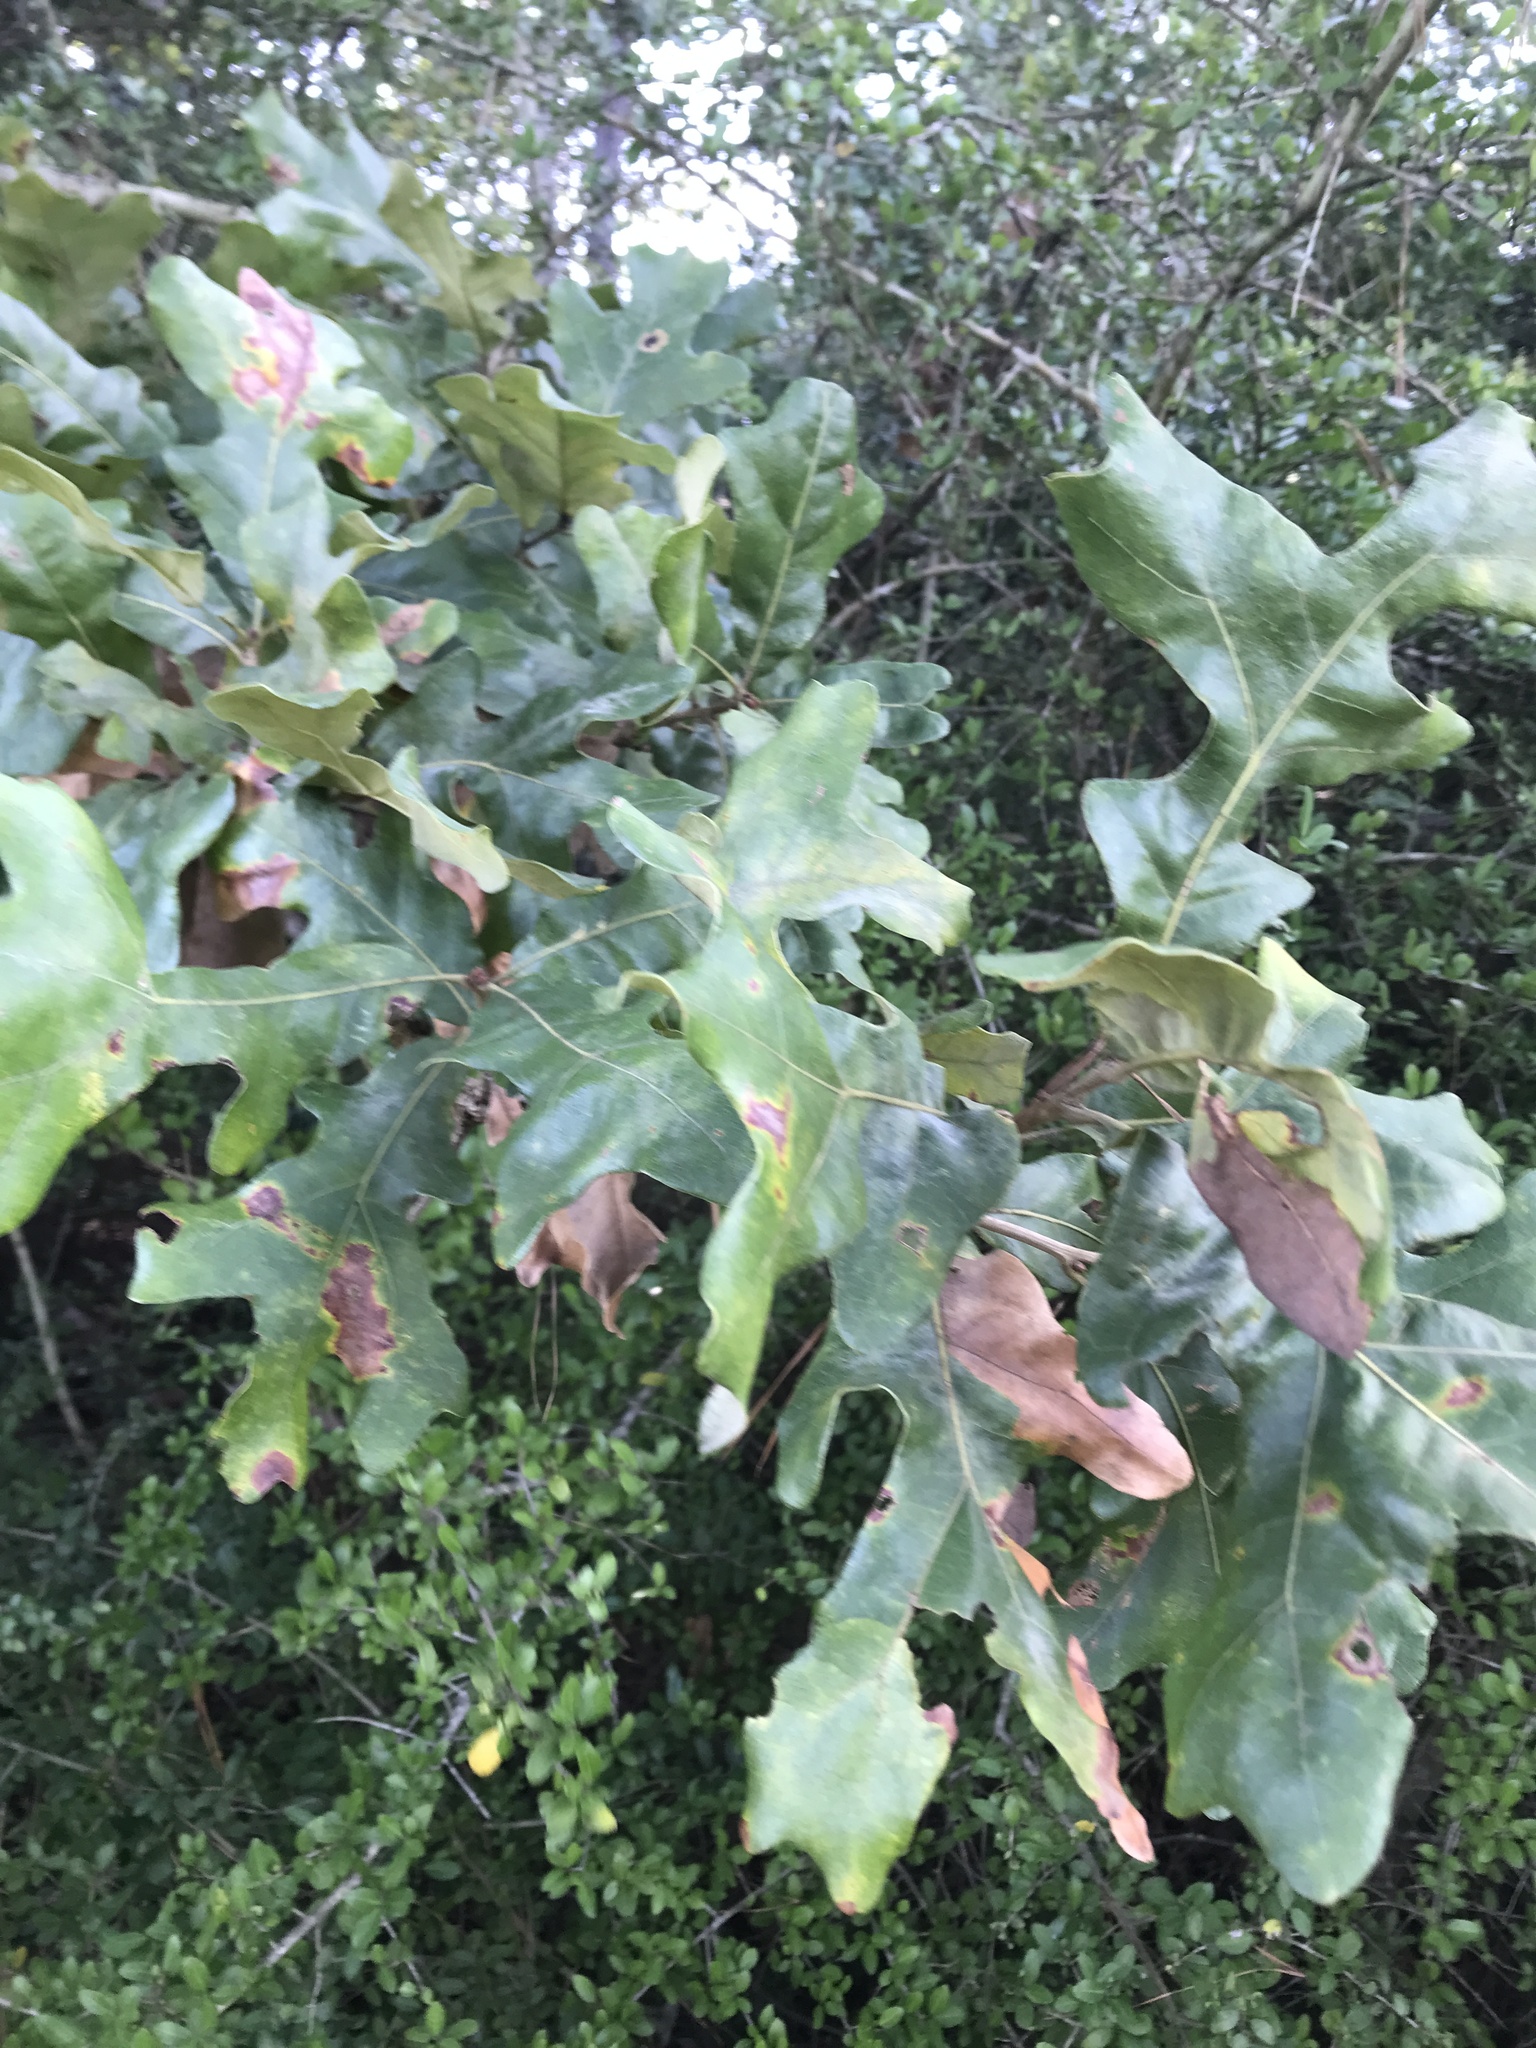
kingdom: Plantae
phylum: Tracheophyta
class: Magnoliopsida
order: Fagales
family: Fagaceae
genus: Quercus
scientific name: Quercus stellata
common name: Post oak
